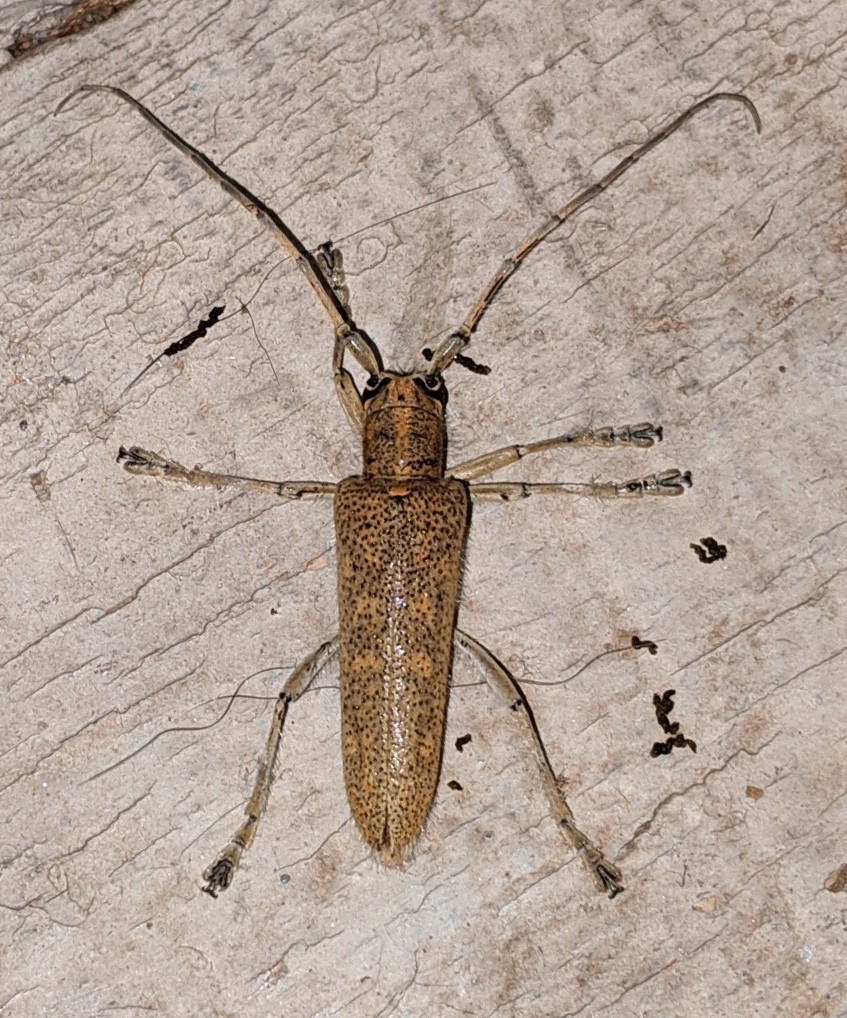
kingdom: Animalia
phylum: Arthropoda
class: Insecta
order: Coleoptera
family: Cerambycidae
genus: Saperda
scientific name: Saperda calcarata
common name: Poplar borer
